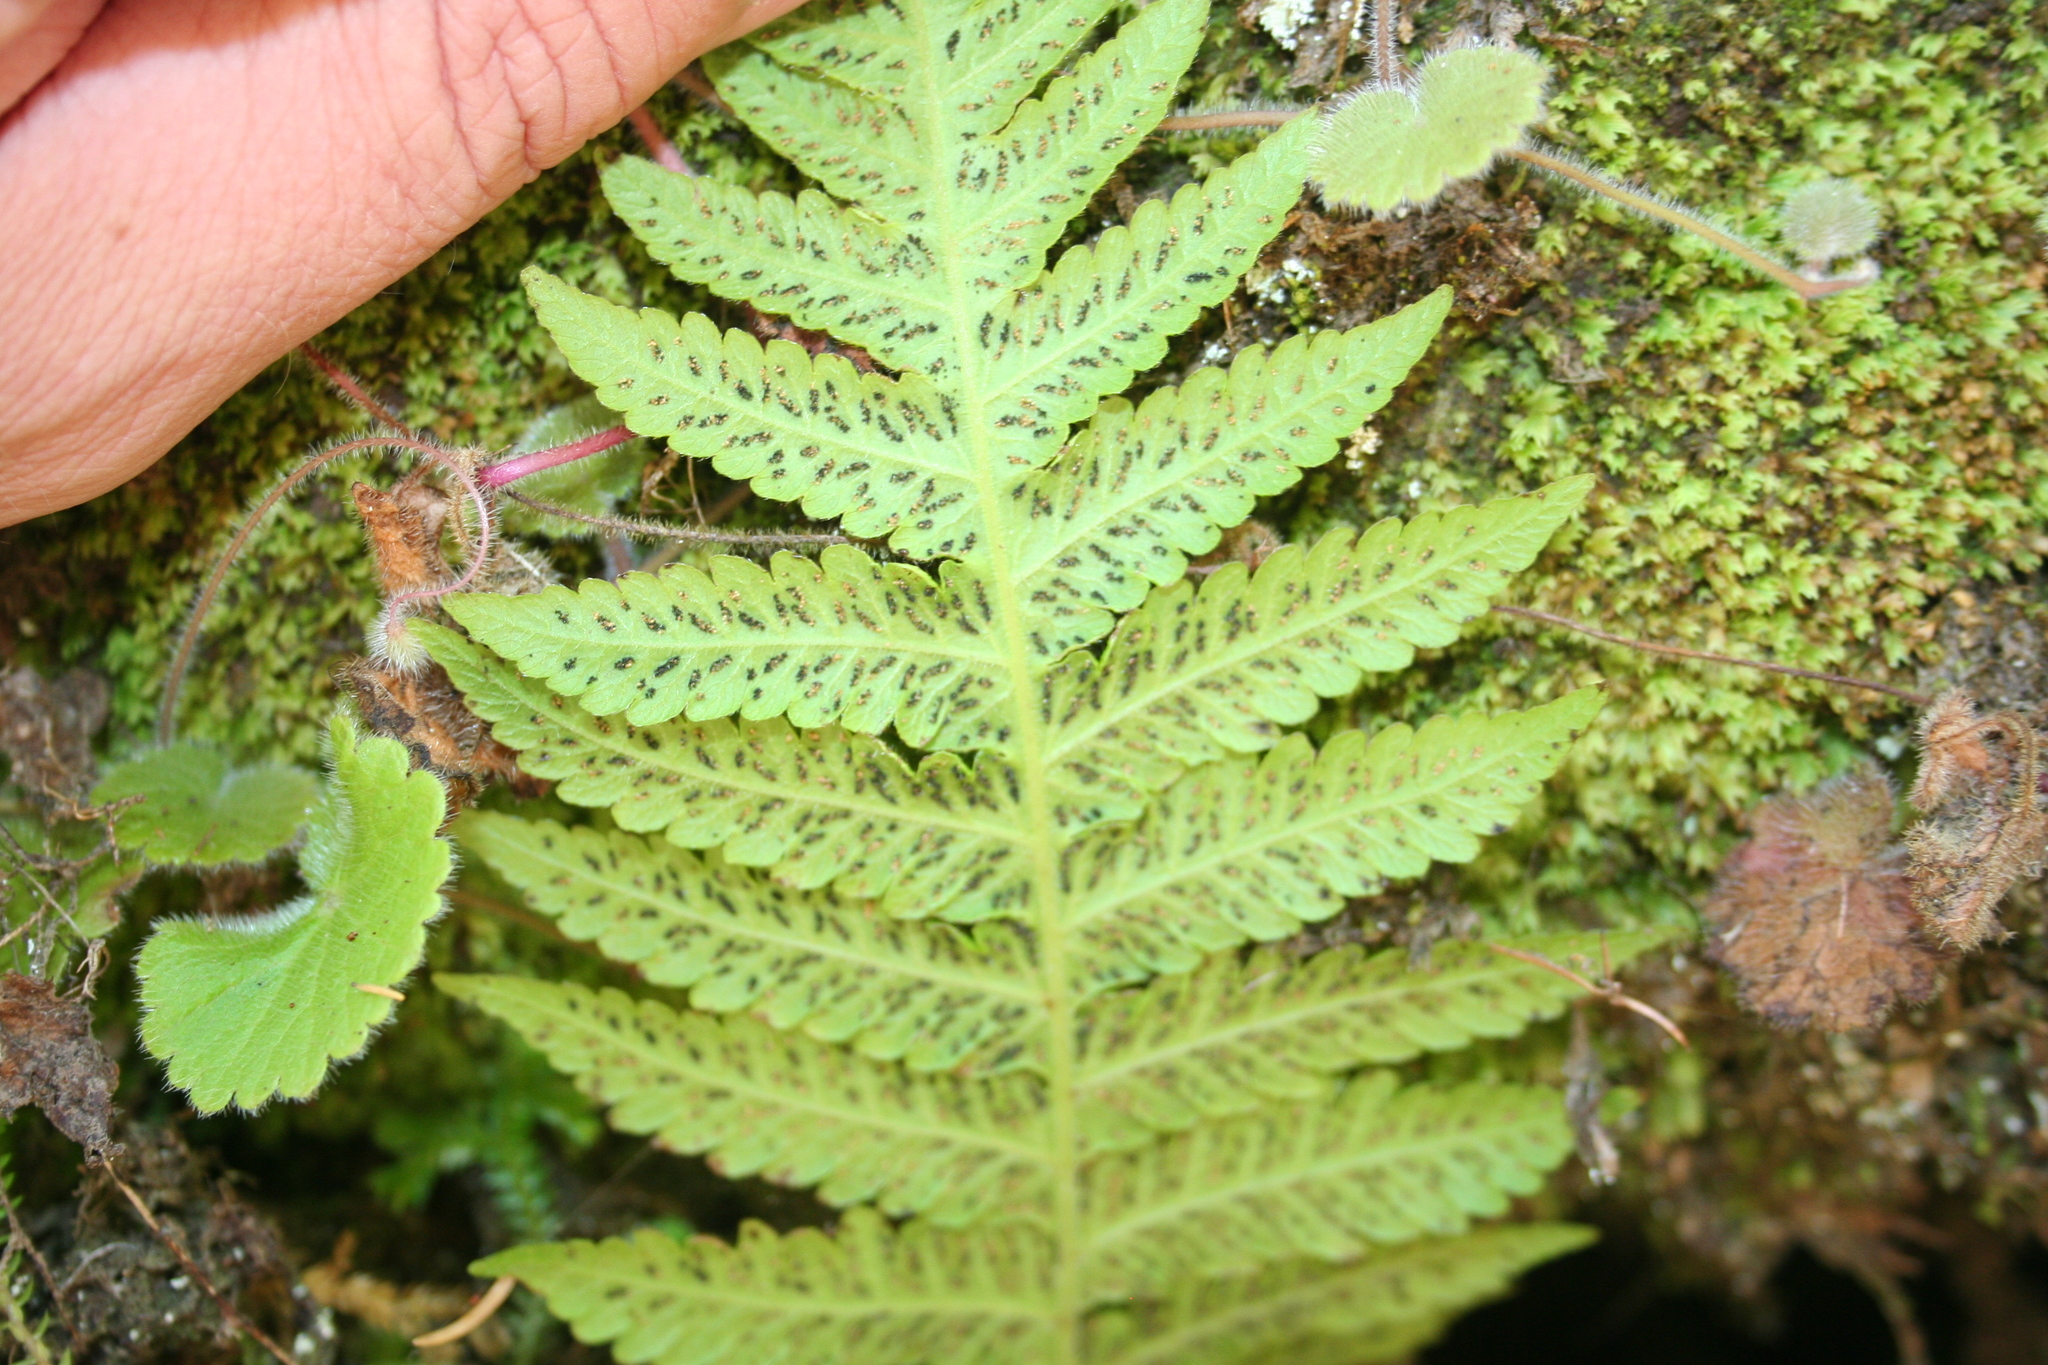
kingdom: Plantae
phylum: Tracheophyta
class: Polypodiopsida
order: Polypodiales
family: Thelypteridaceae
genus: Leptogramma
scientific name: Leptogramma pozoi
